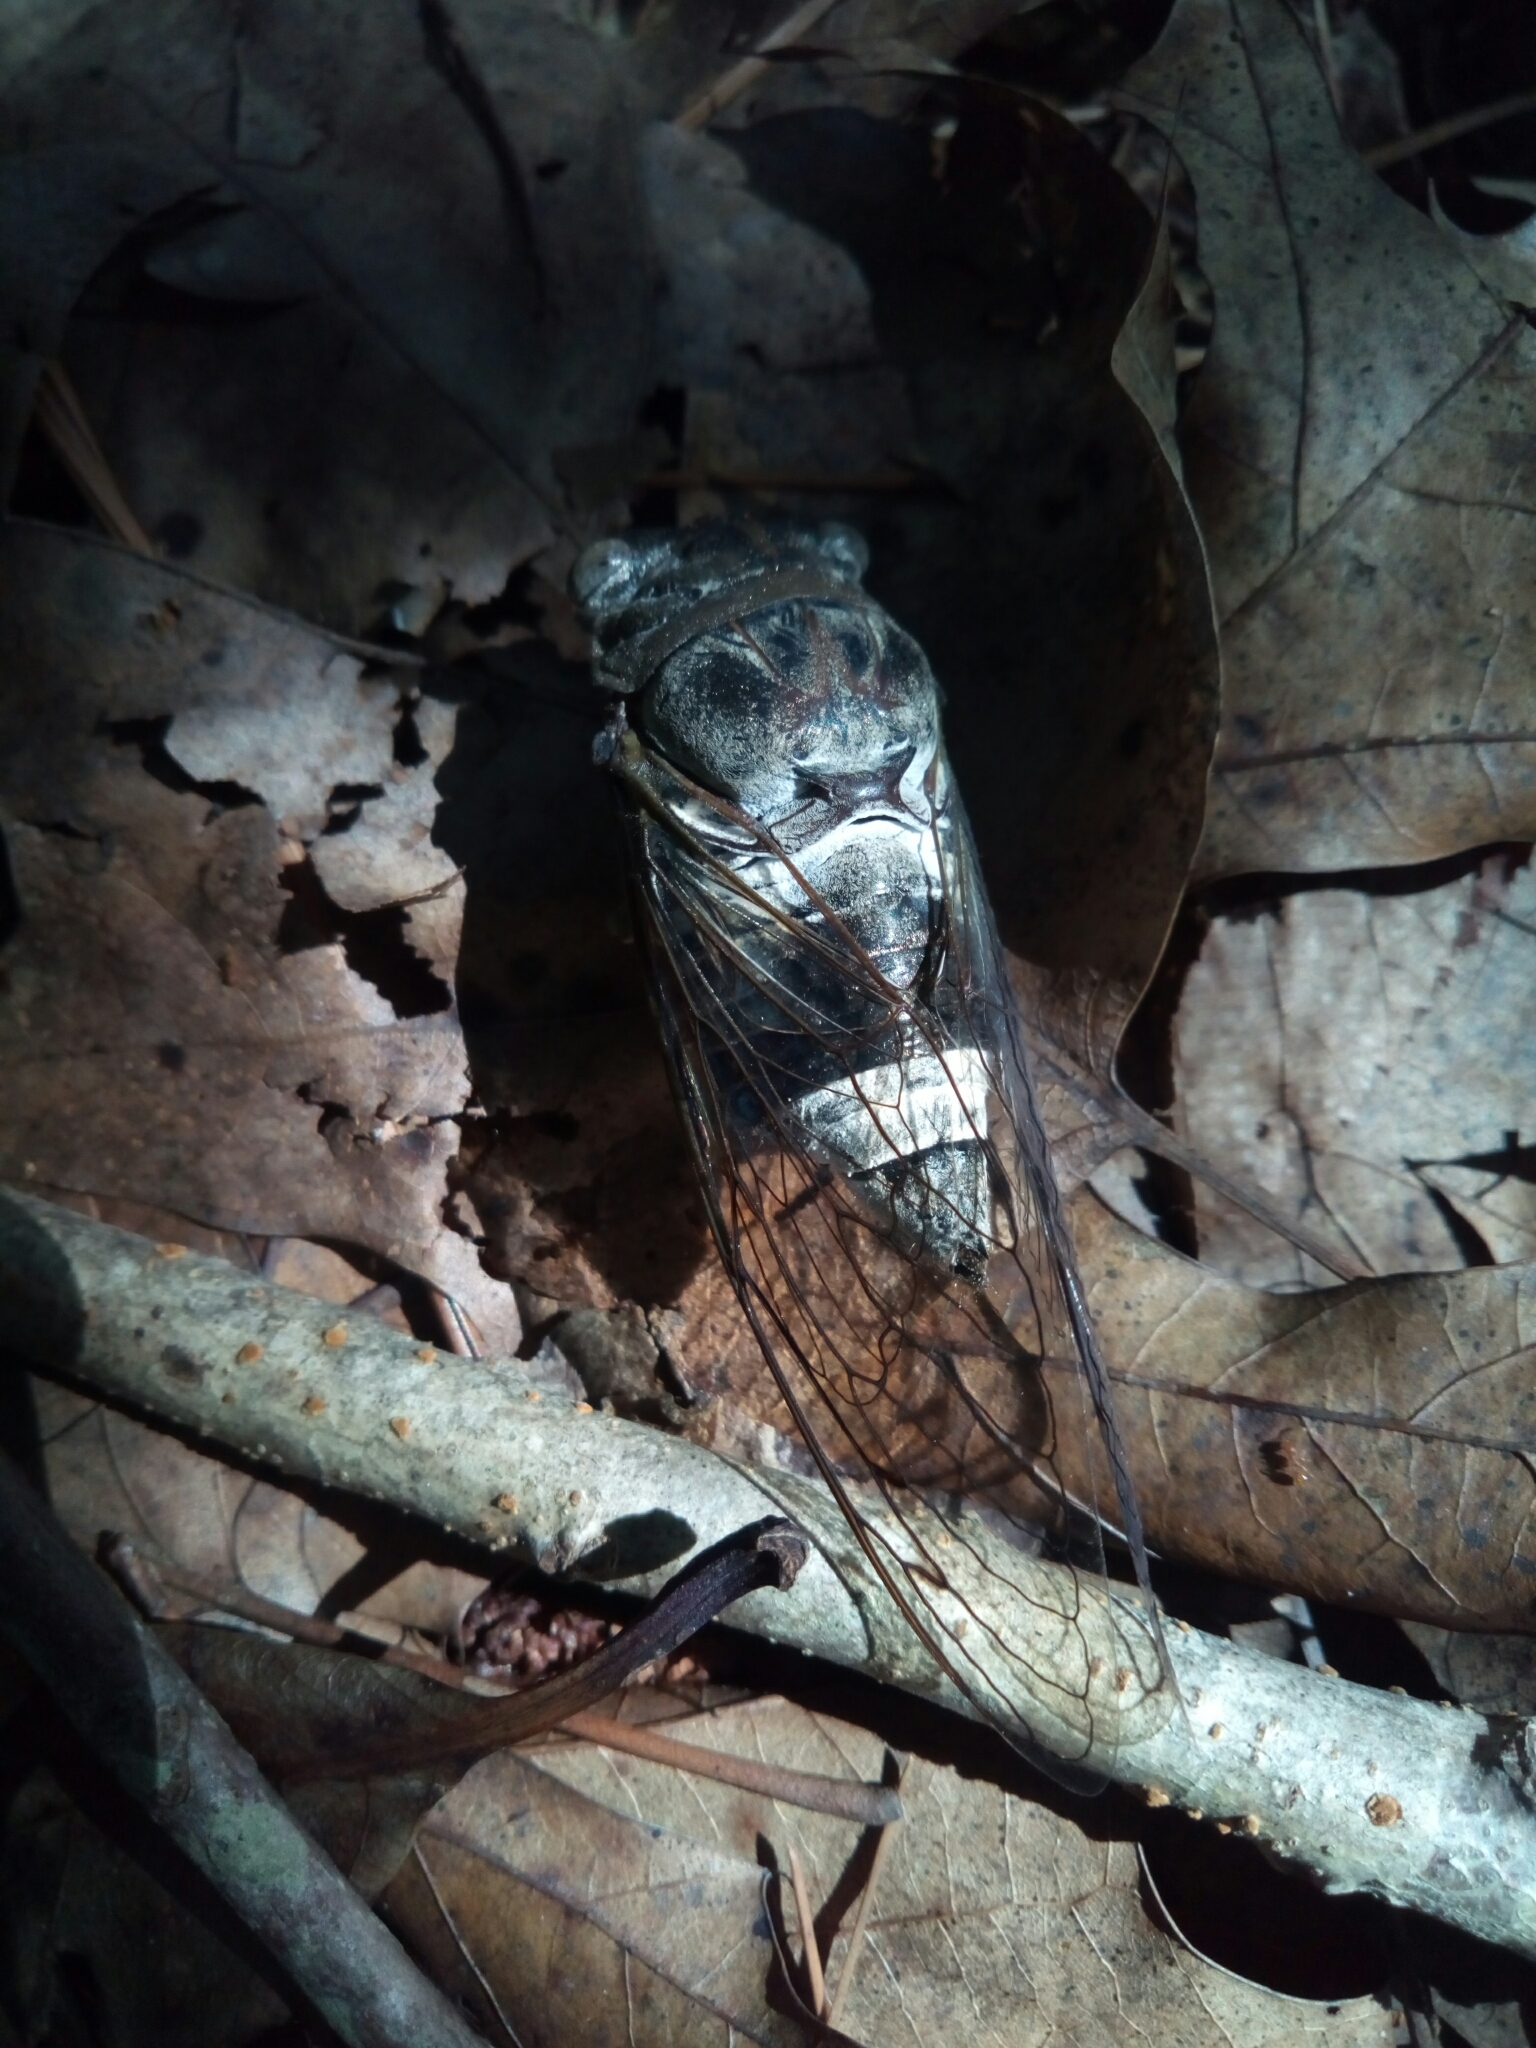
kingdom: Animalia
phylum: Arthropoda
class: Insecta
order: Hemiptera
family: Cicadidae
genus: Diceroprocta
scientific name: Diceroprocta grossa
